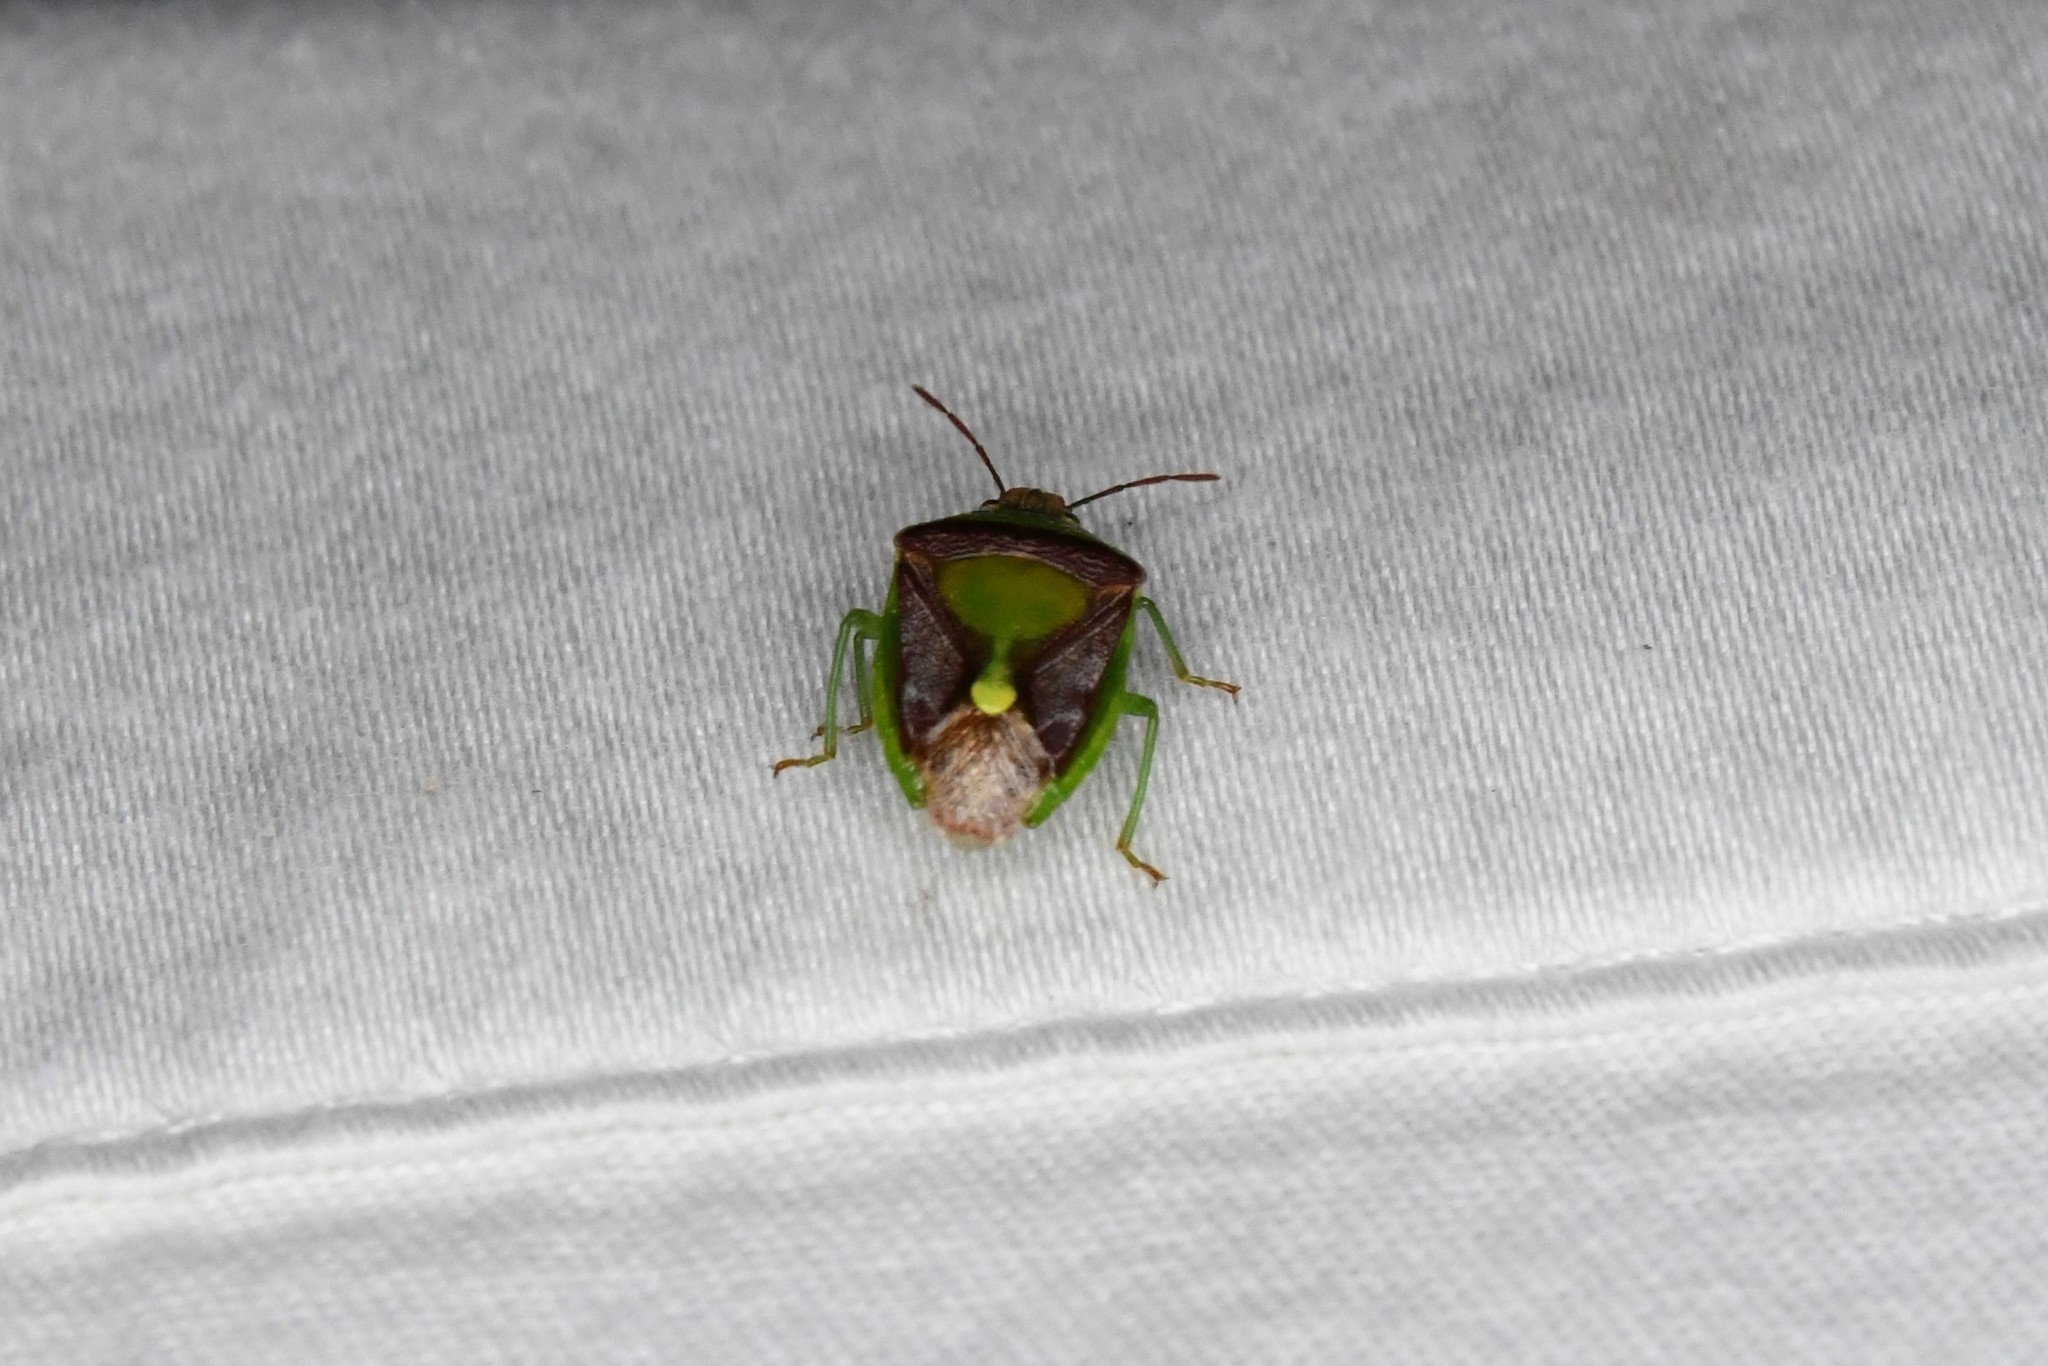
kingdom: Animalia
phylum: Arthropoda
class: Insecta
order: Hemiptera
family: Pentatomidae
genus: Banasa
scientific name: Banasa dimidiata
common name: Green burgundy stink bug
